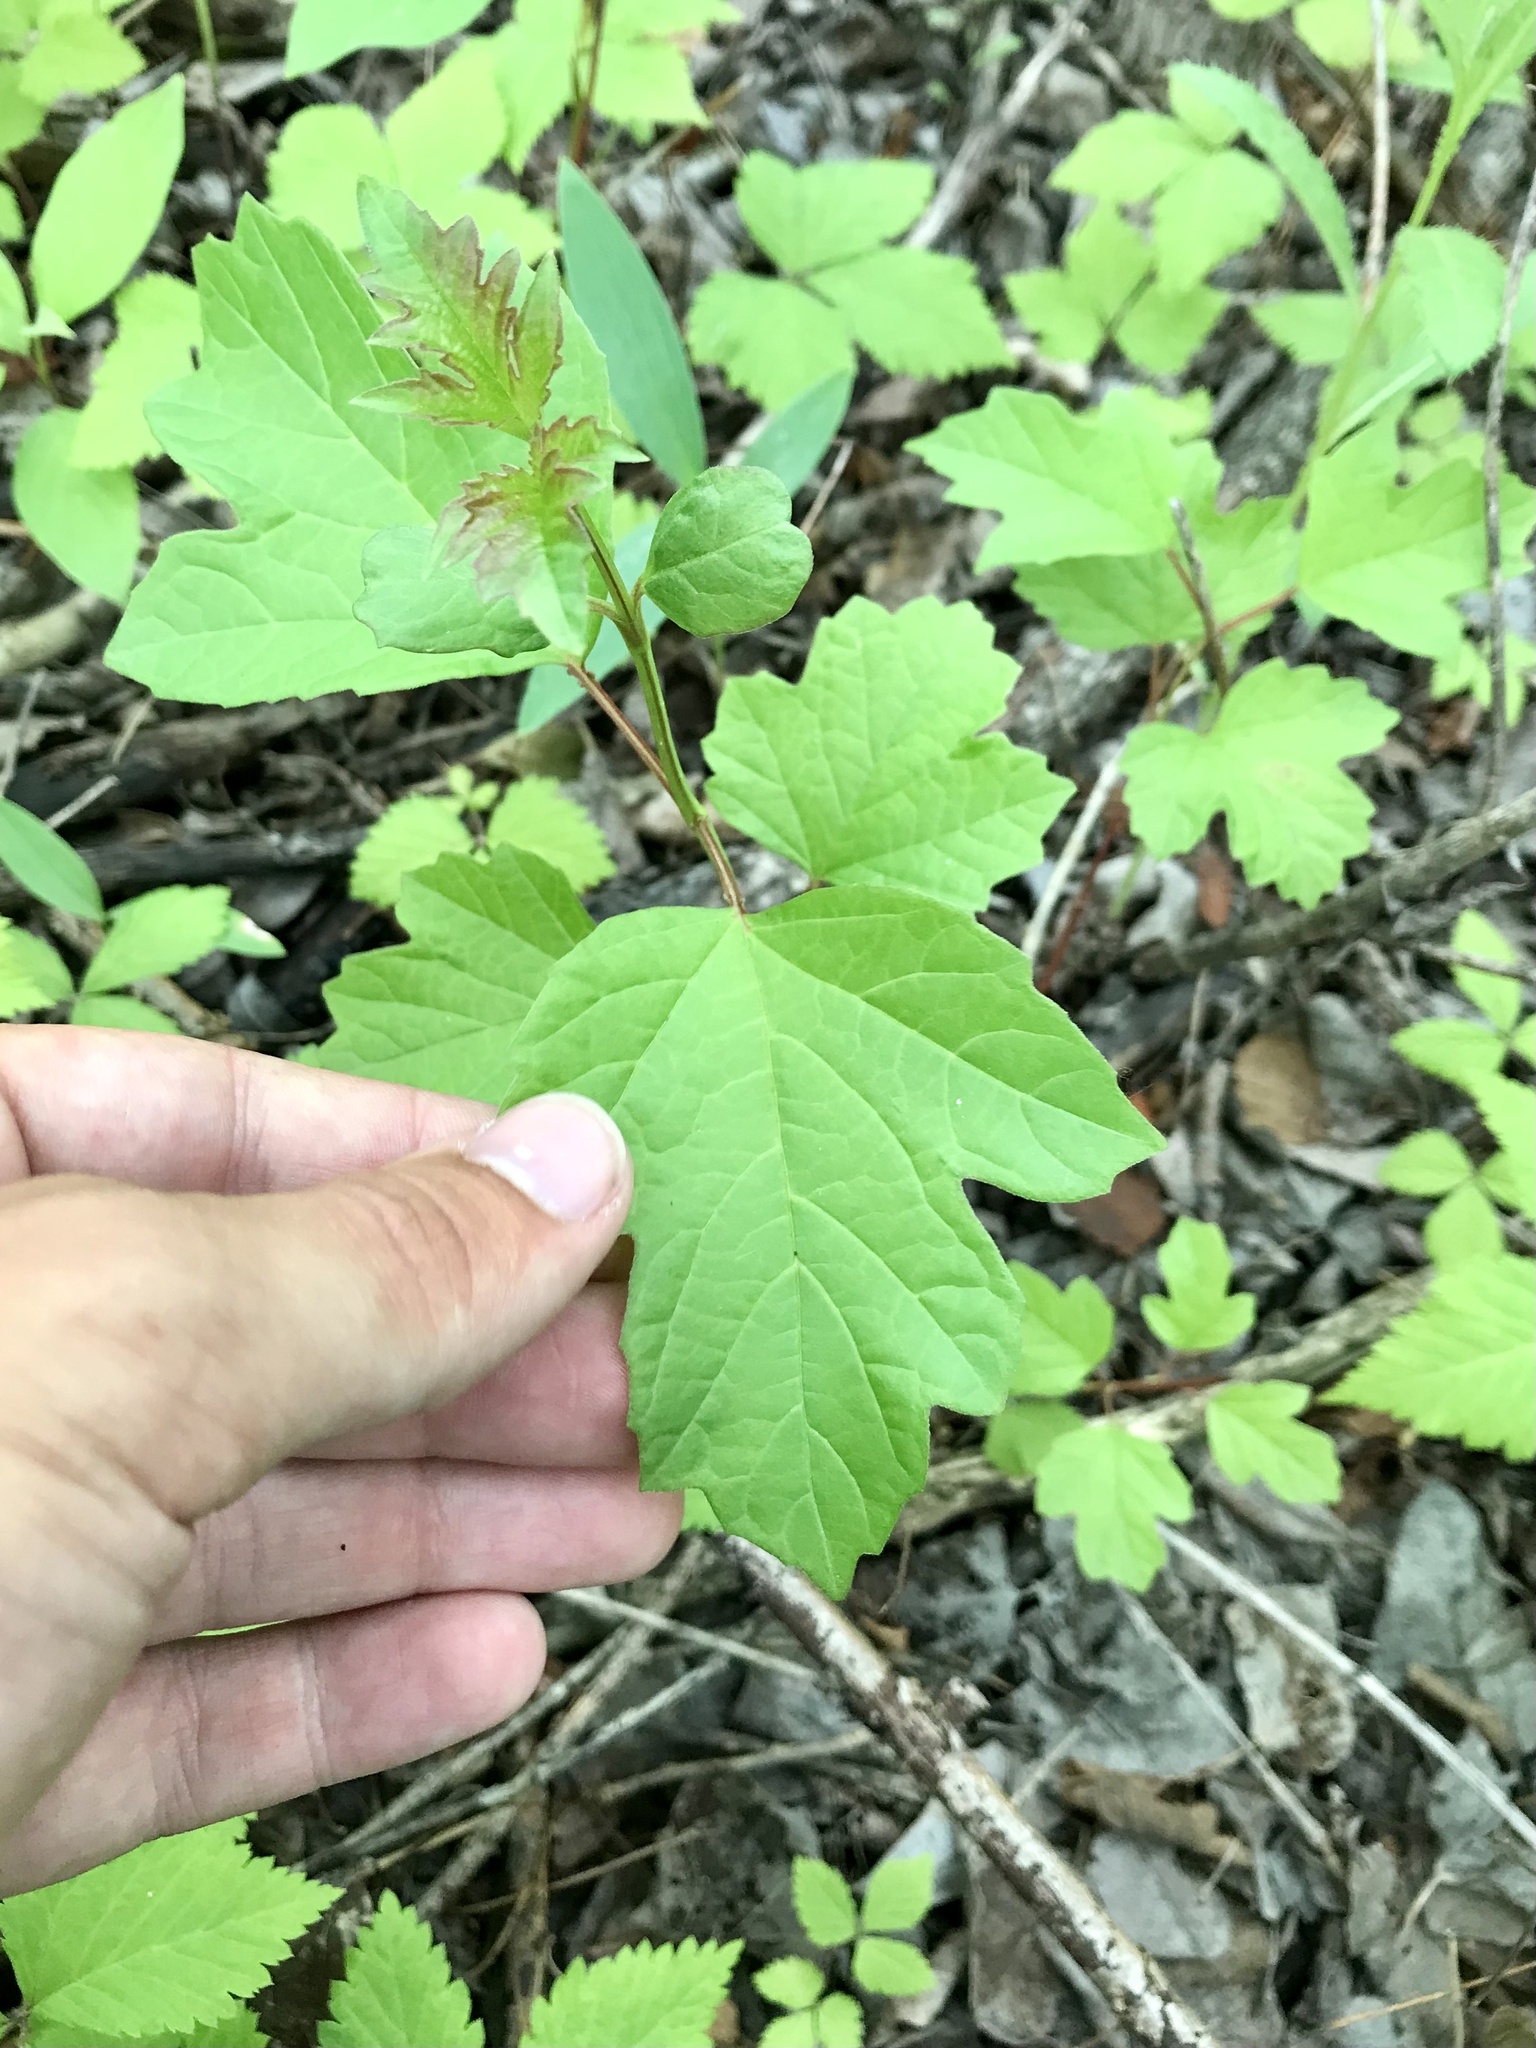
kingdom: Plantae
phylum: Tracheophyta
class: Magnoliopsida
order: Dipsacales
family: Viburnaceae
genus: Viburnum
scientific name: Viburnum opulus
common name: Guelder-rose
